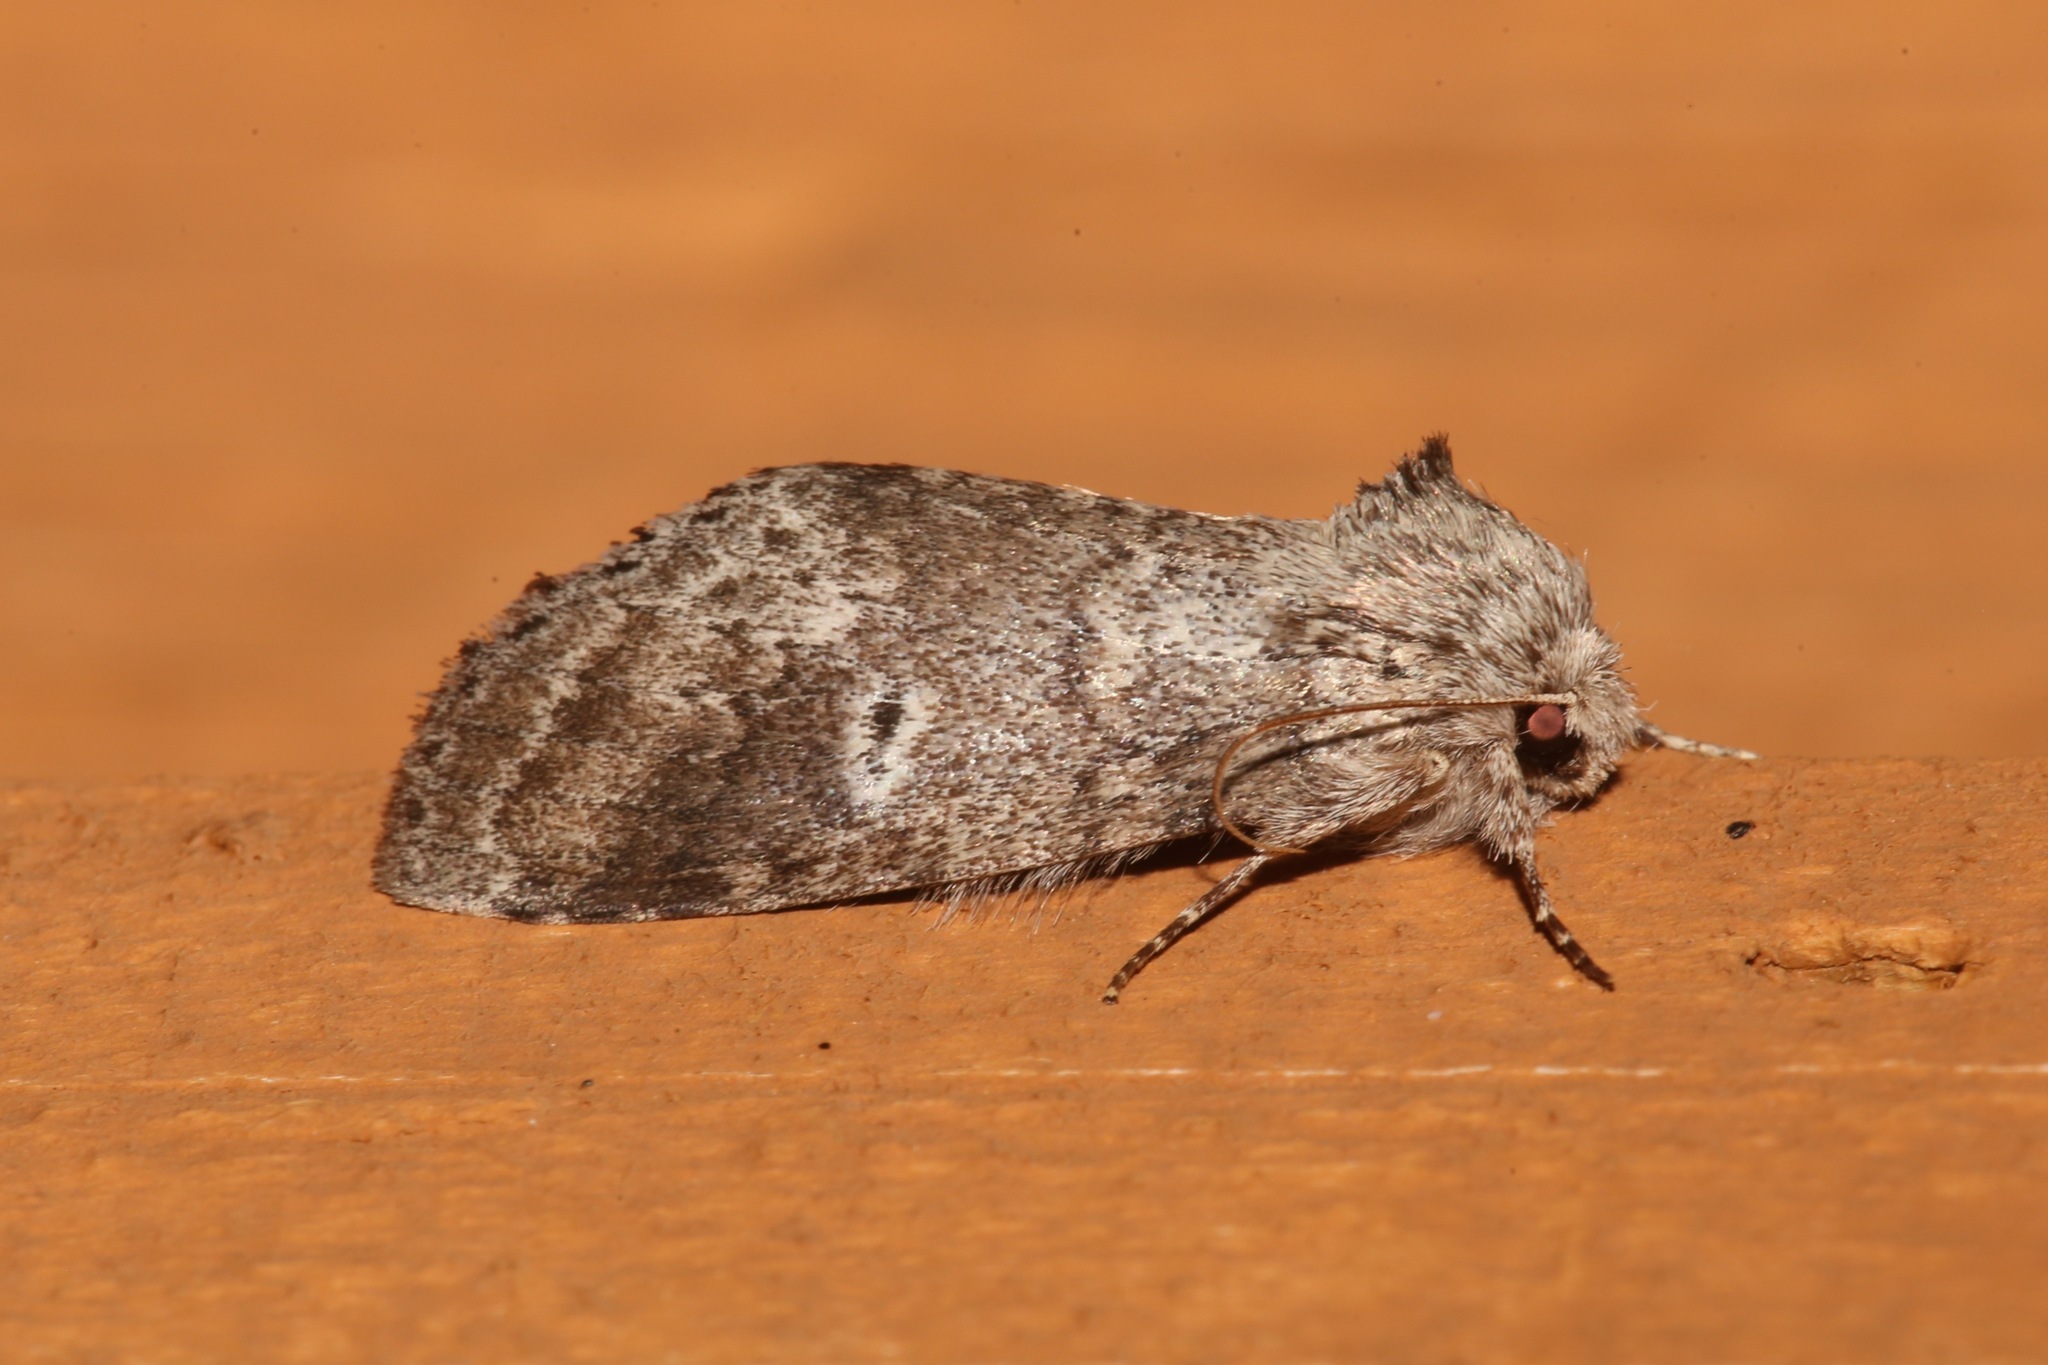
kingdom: Animalia
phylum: Arthropoda
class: Insecta
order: Lepidoptera
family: Notodontidae
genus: Lochmaeus
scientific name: Lochmaeus manteo
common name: Variable oakleaf caterpillar moth
